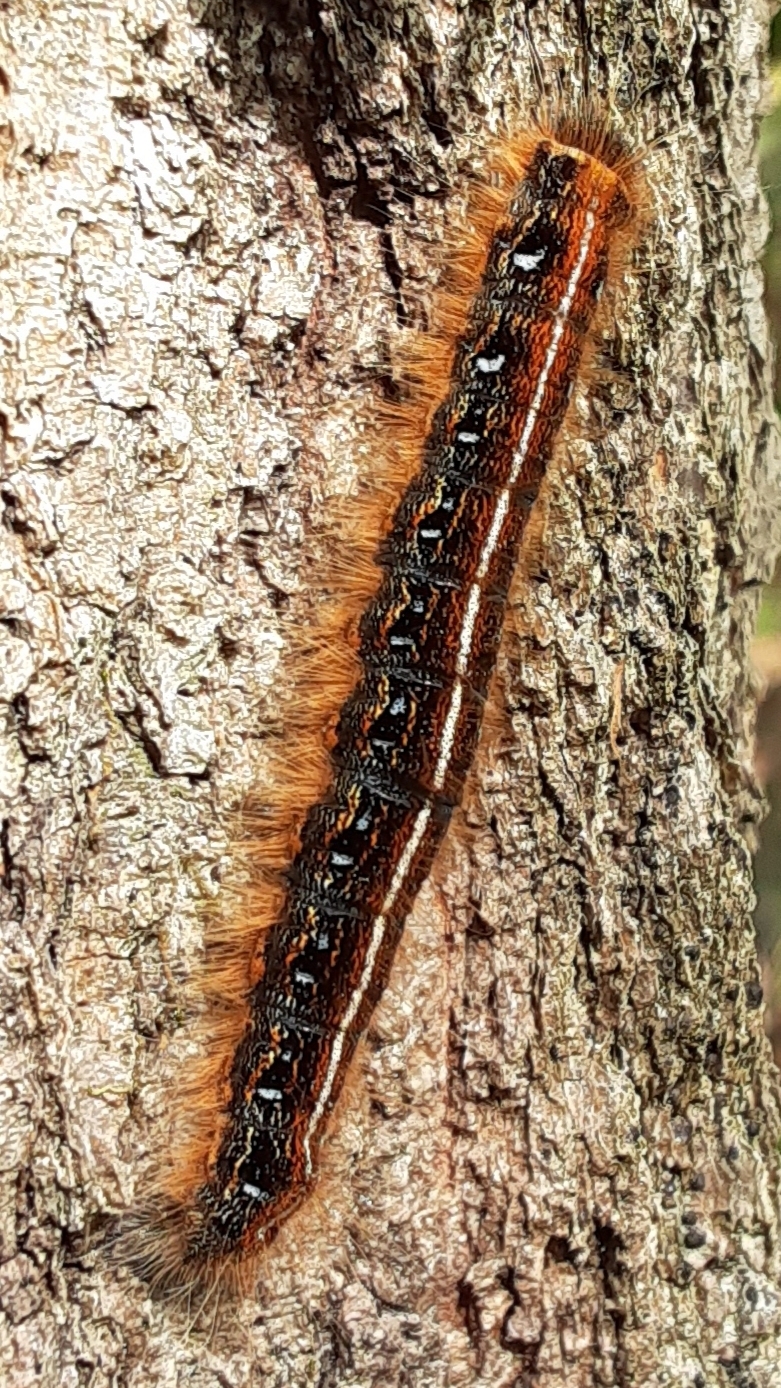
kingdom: Animalia
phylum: Arthropoda
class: Insecta
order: Lepidoptera
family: Lasiocampidae
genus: Malacosoma
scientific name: Malacosoma americana
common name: Eastern tent caterpillar moth
